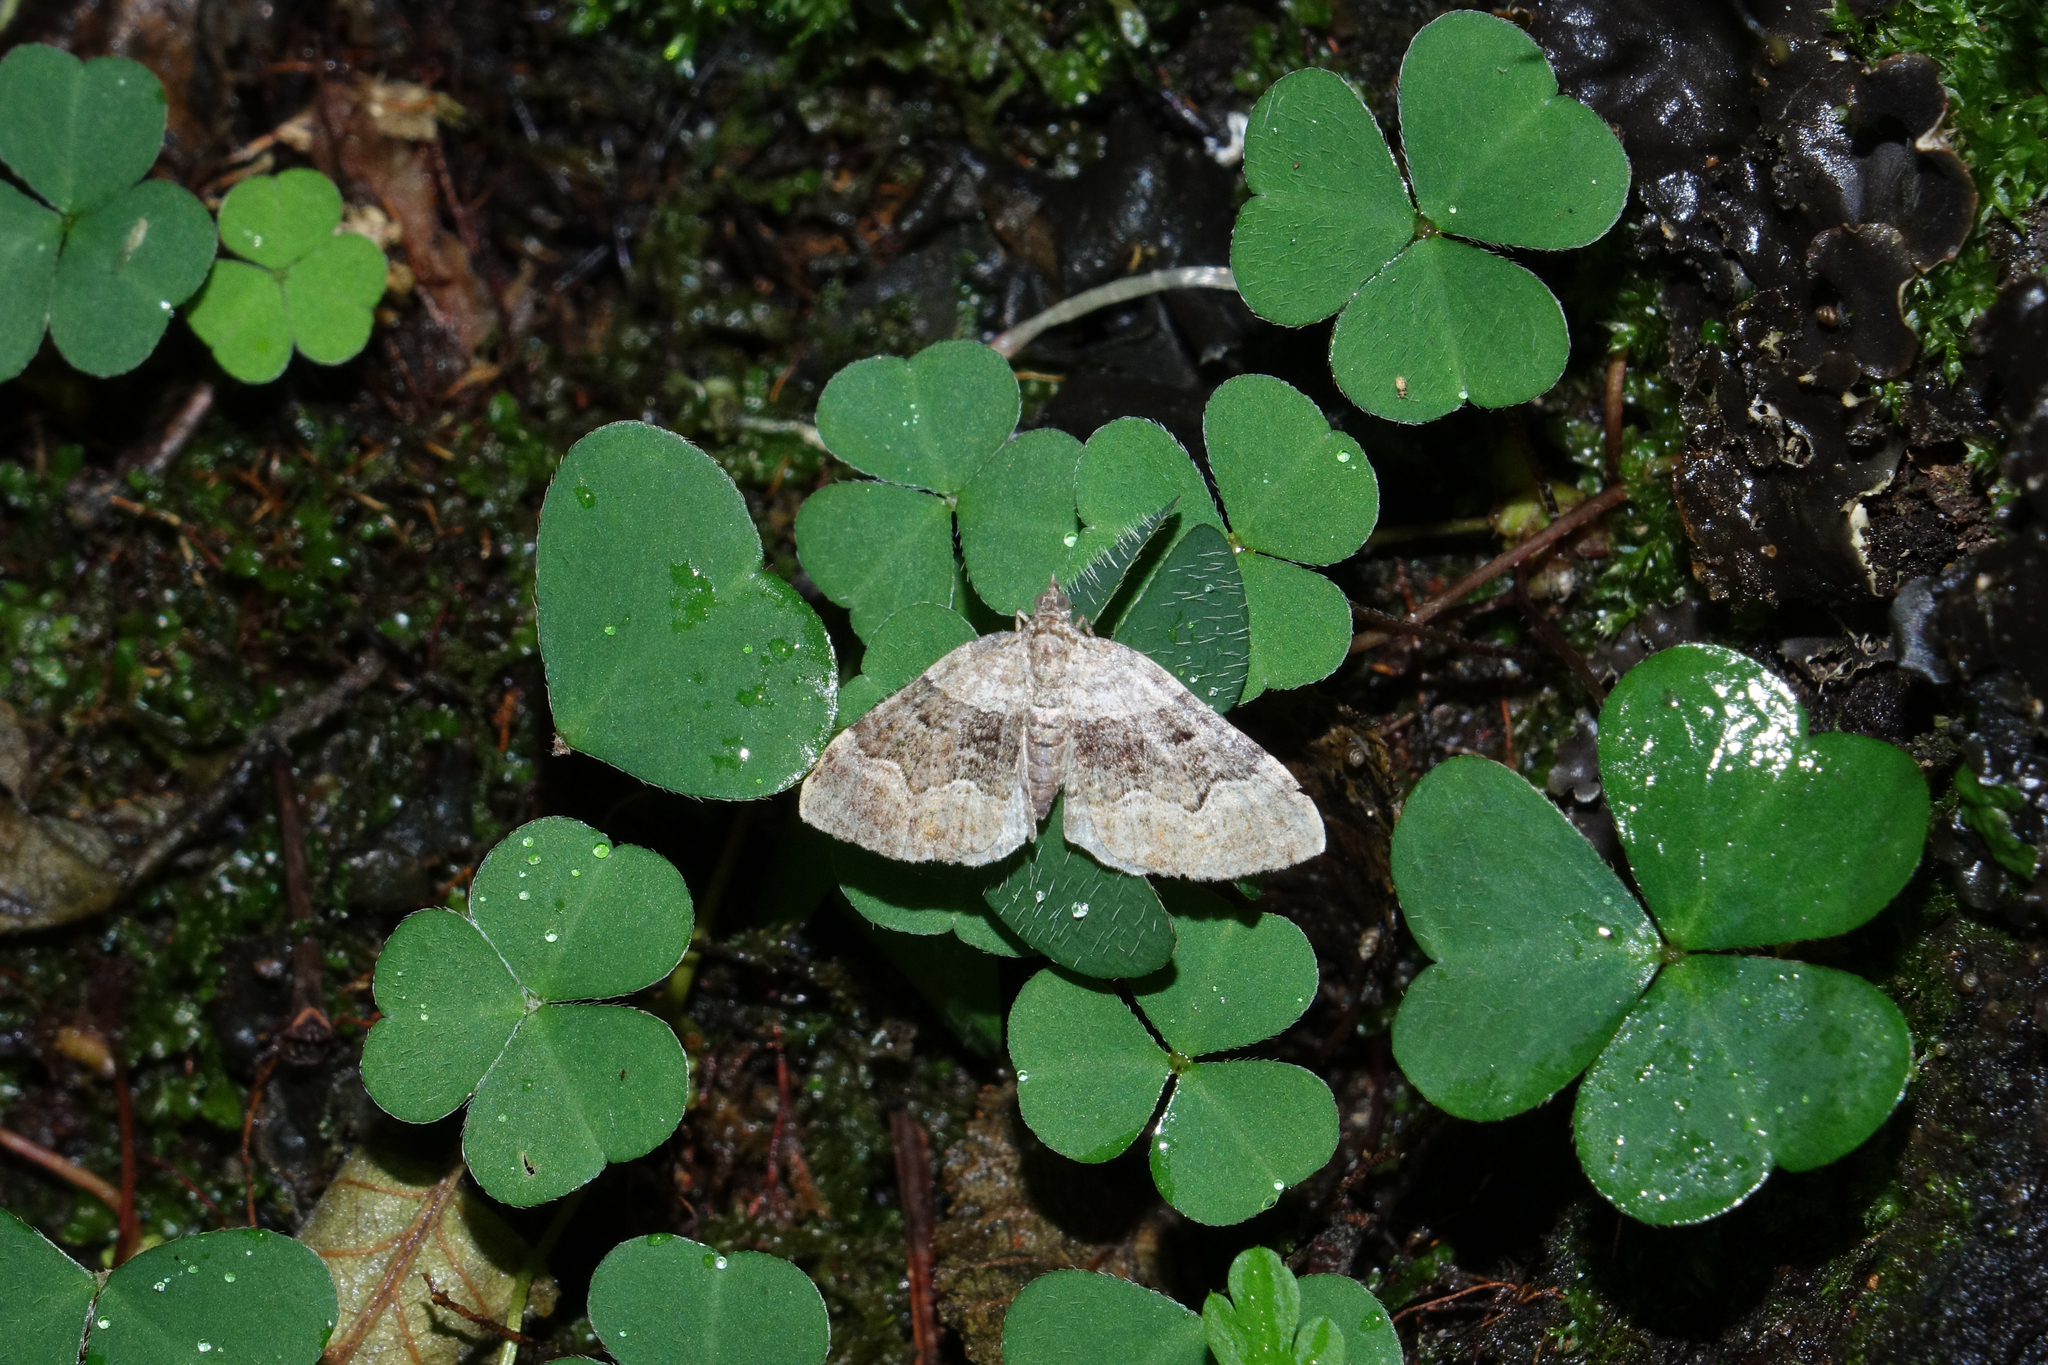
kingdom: Plantae
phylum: Tracheophyta
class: Magnoliopsida
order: Oxalidales
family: Oxalidaceae
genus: Oxalis
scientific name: Oxalis acetosella
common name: Wood-sorrel
